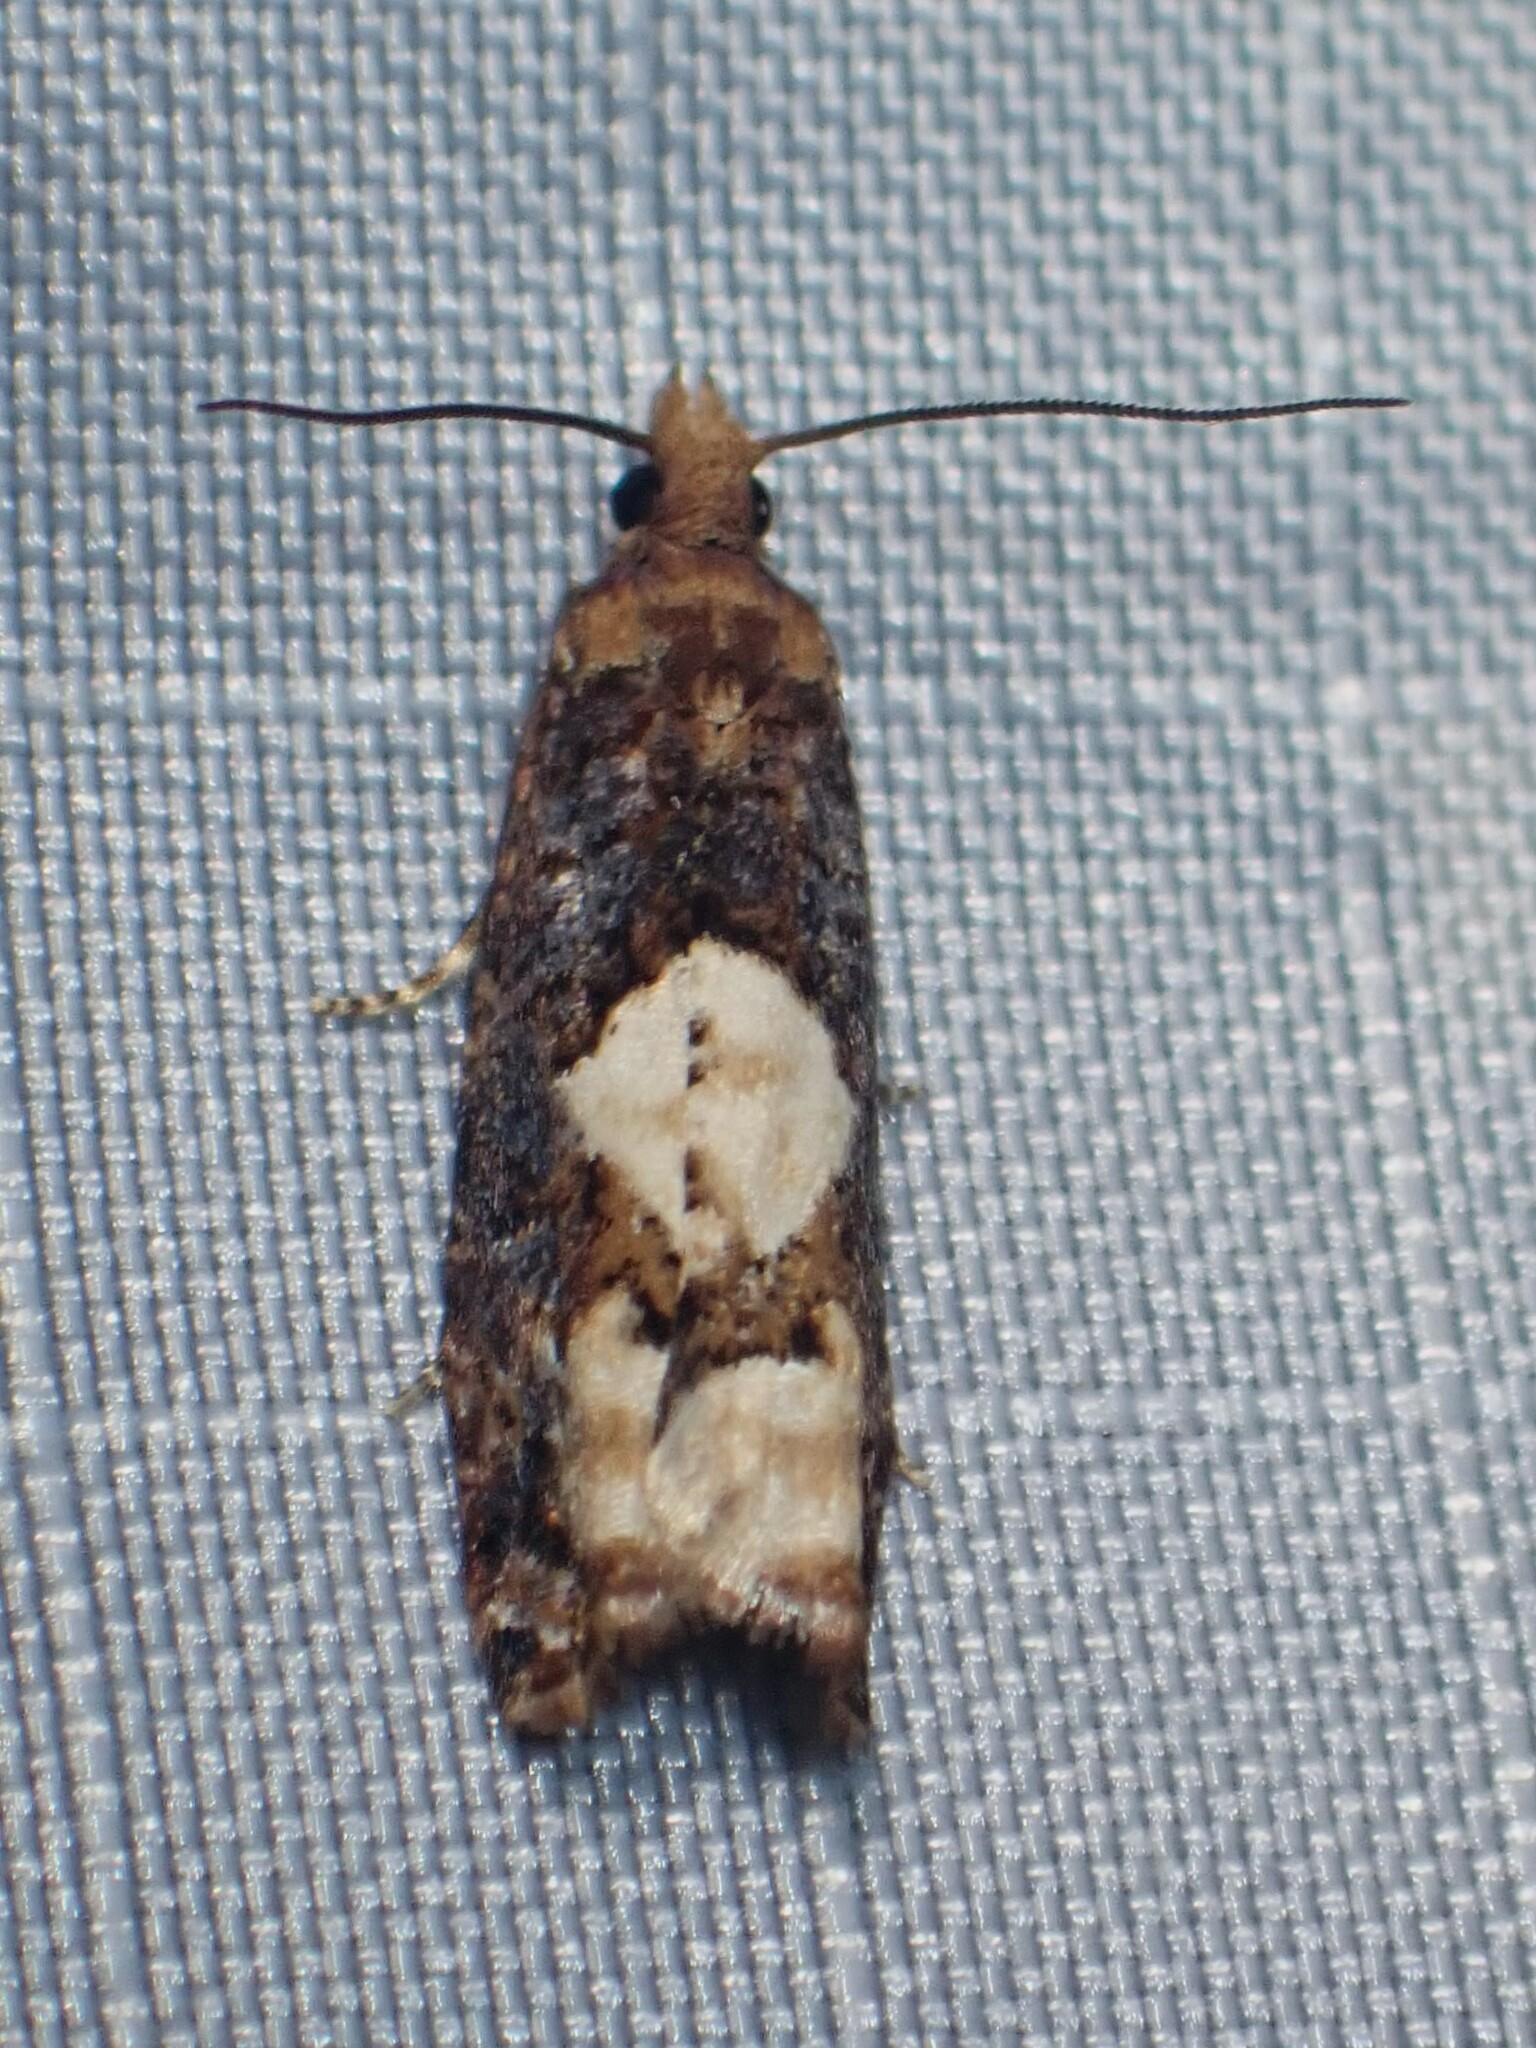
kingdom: Animalia
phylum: Arthropoda
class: Insecta
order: Lepidoptera
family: Tortricidae
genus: Epinotia
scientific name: Epinotia trigonella
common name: White-blotch bell
